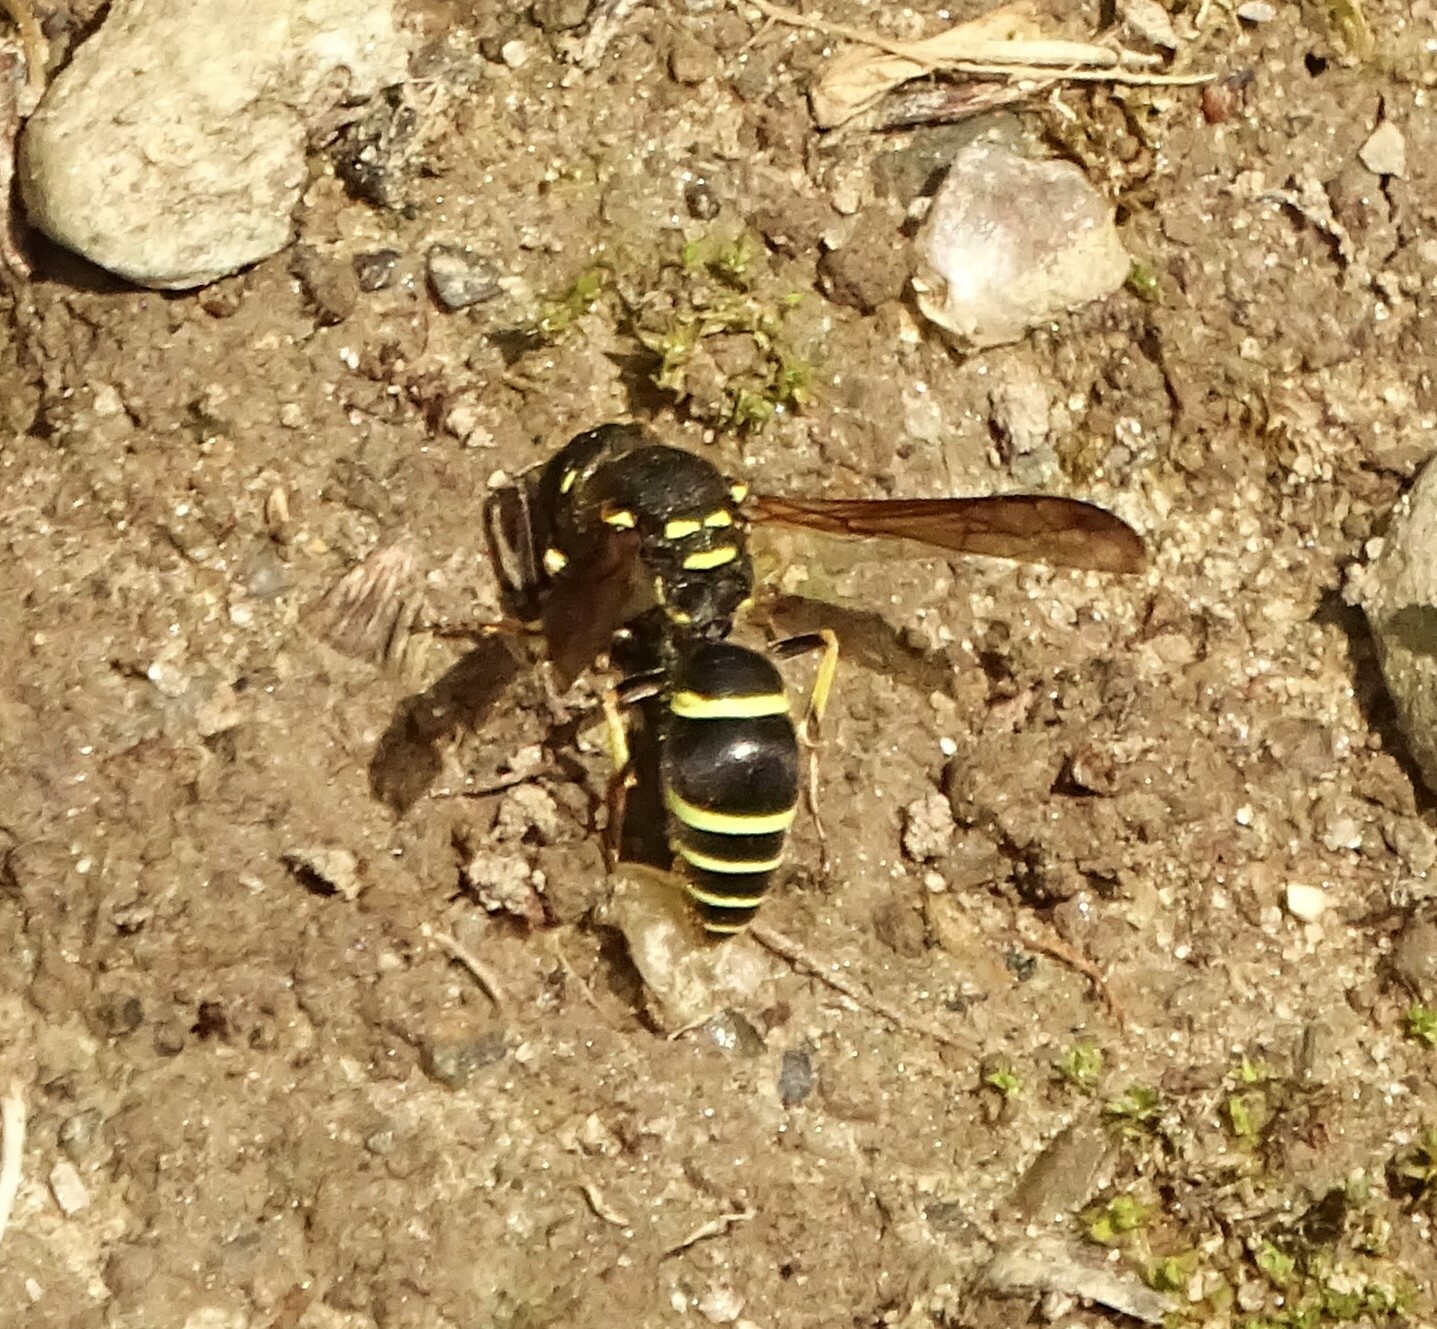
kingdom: Animalia
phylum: Arthropoda
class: Insecta
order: Hymenoptera
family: Vespidae
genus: Ancistrocerus
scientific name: Ancistrocerus catskill
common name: Vespid wasp
